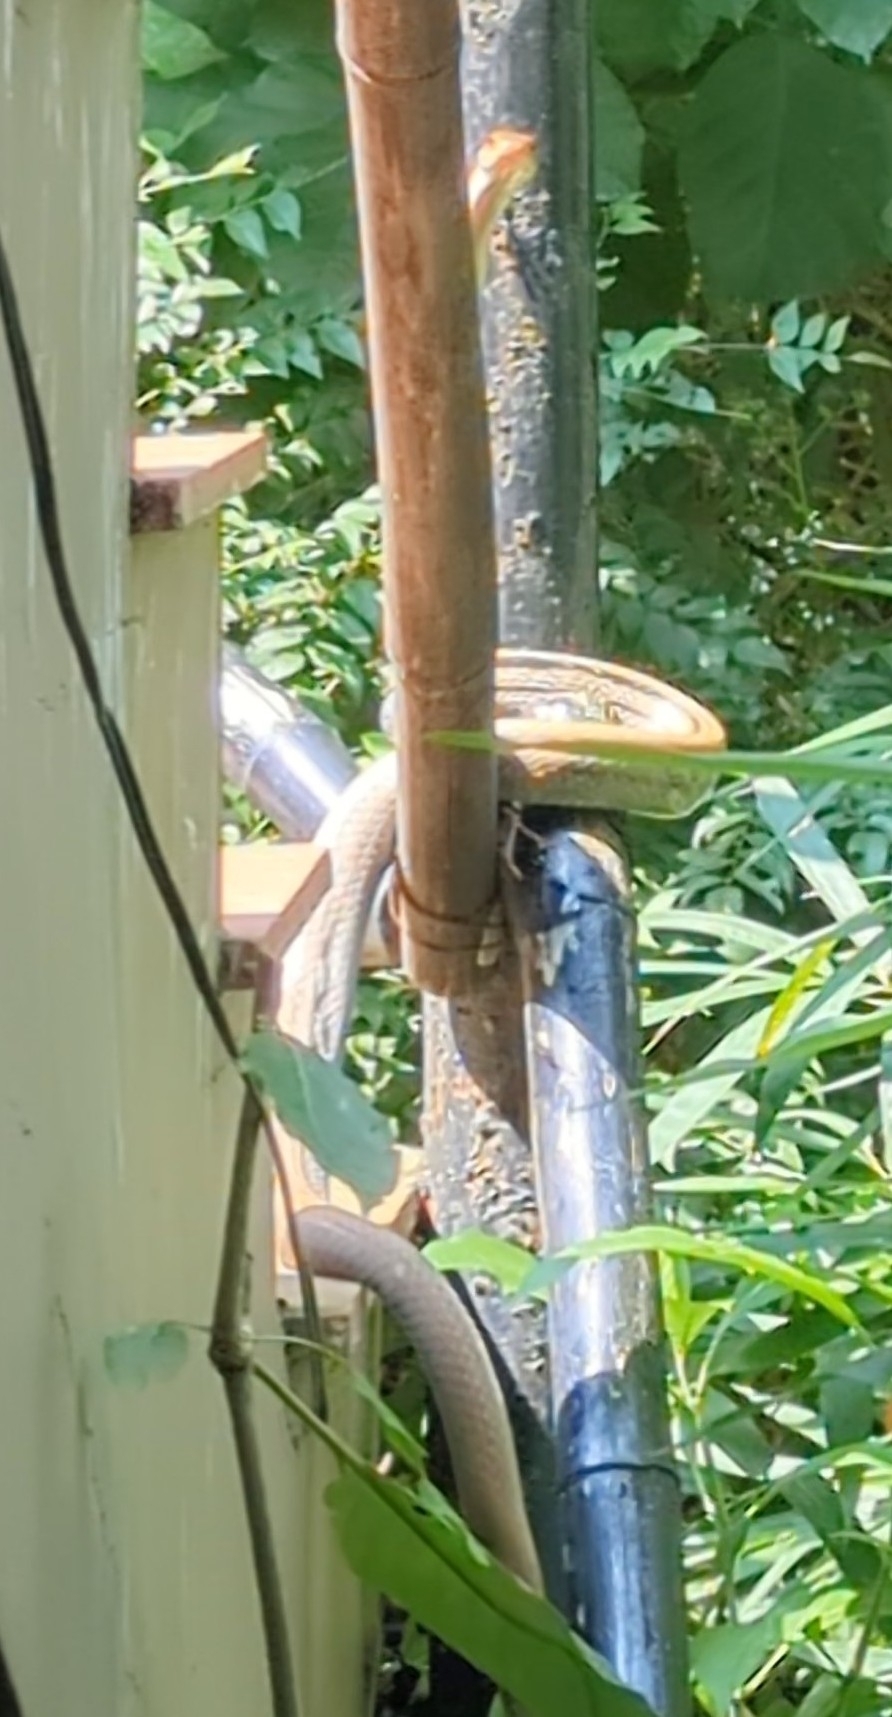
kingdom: Animalia
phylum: Chordata
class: Squamata
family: Colubridae
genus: Coelognathus
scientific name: Coelognathus radiatus
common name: Copperhead rat snake
